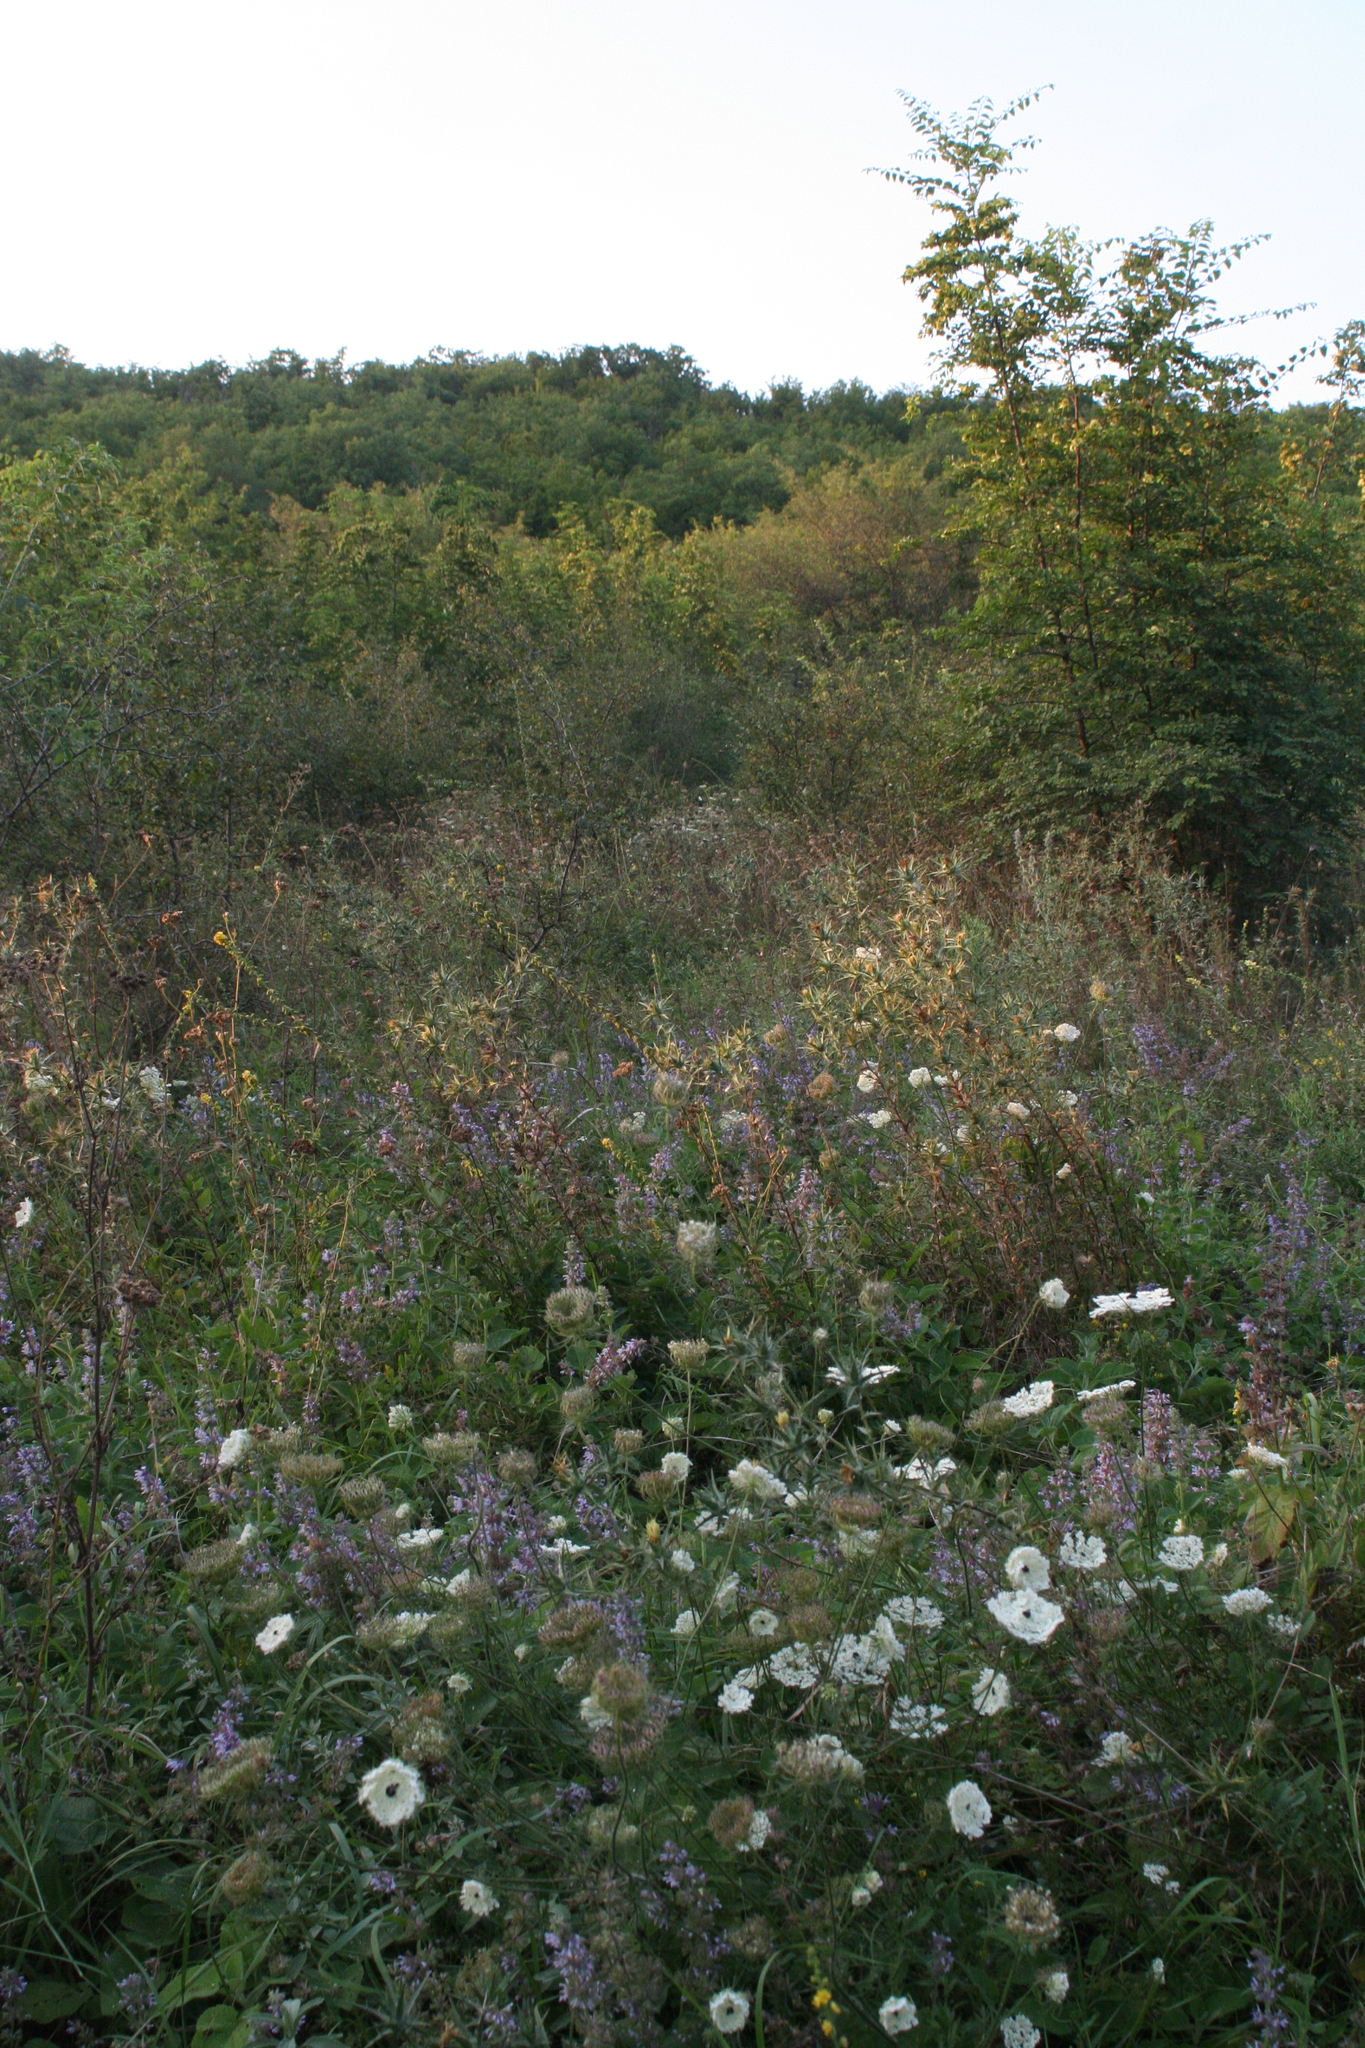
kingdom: Plantae
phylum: Tracheophyta
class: Magnoliopsida
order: Apiales
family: Apiaceae
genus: Daucus
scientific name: Daucus carota
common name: Wild carrot
